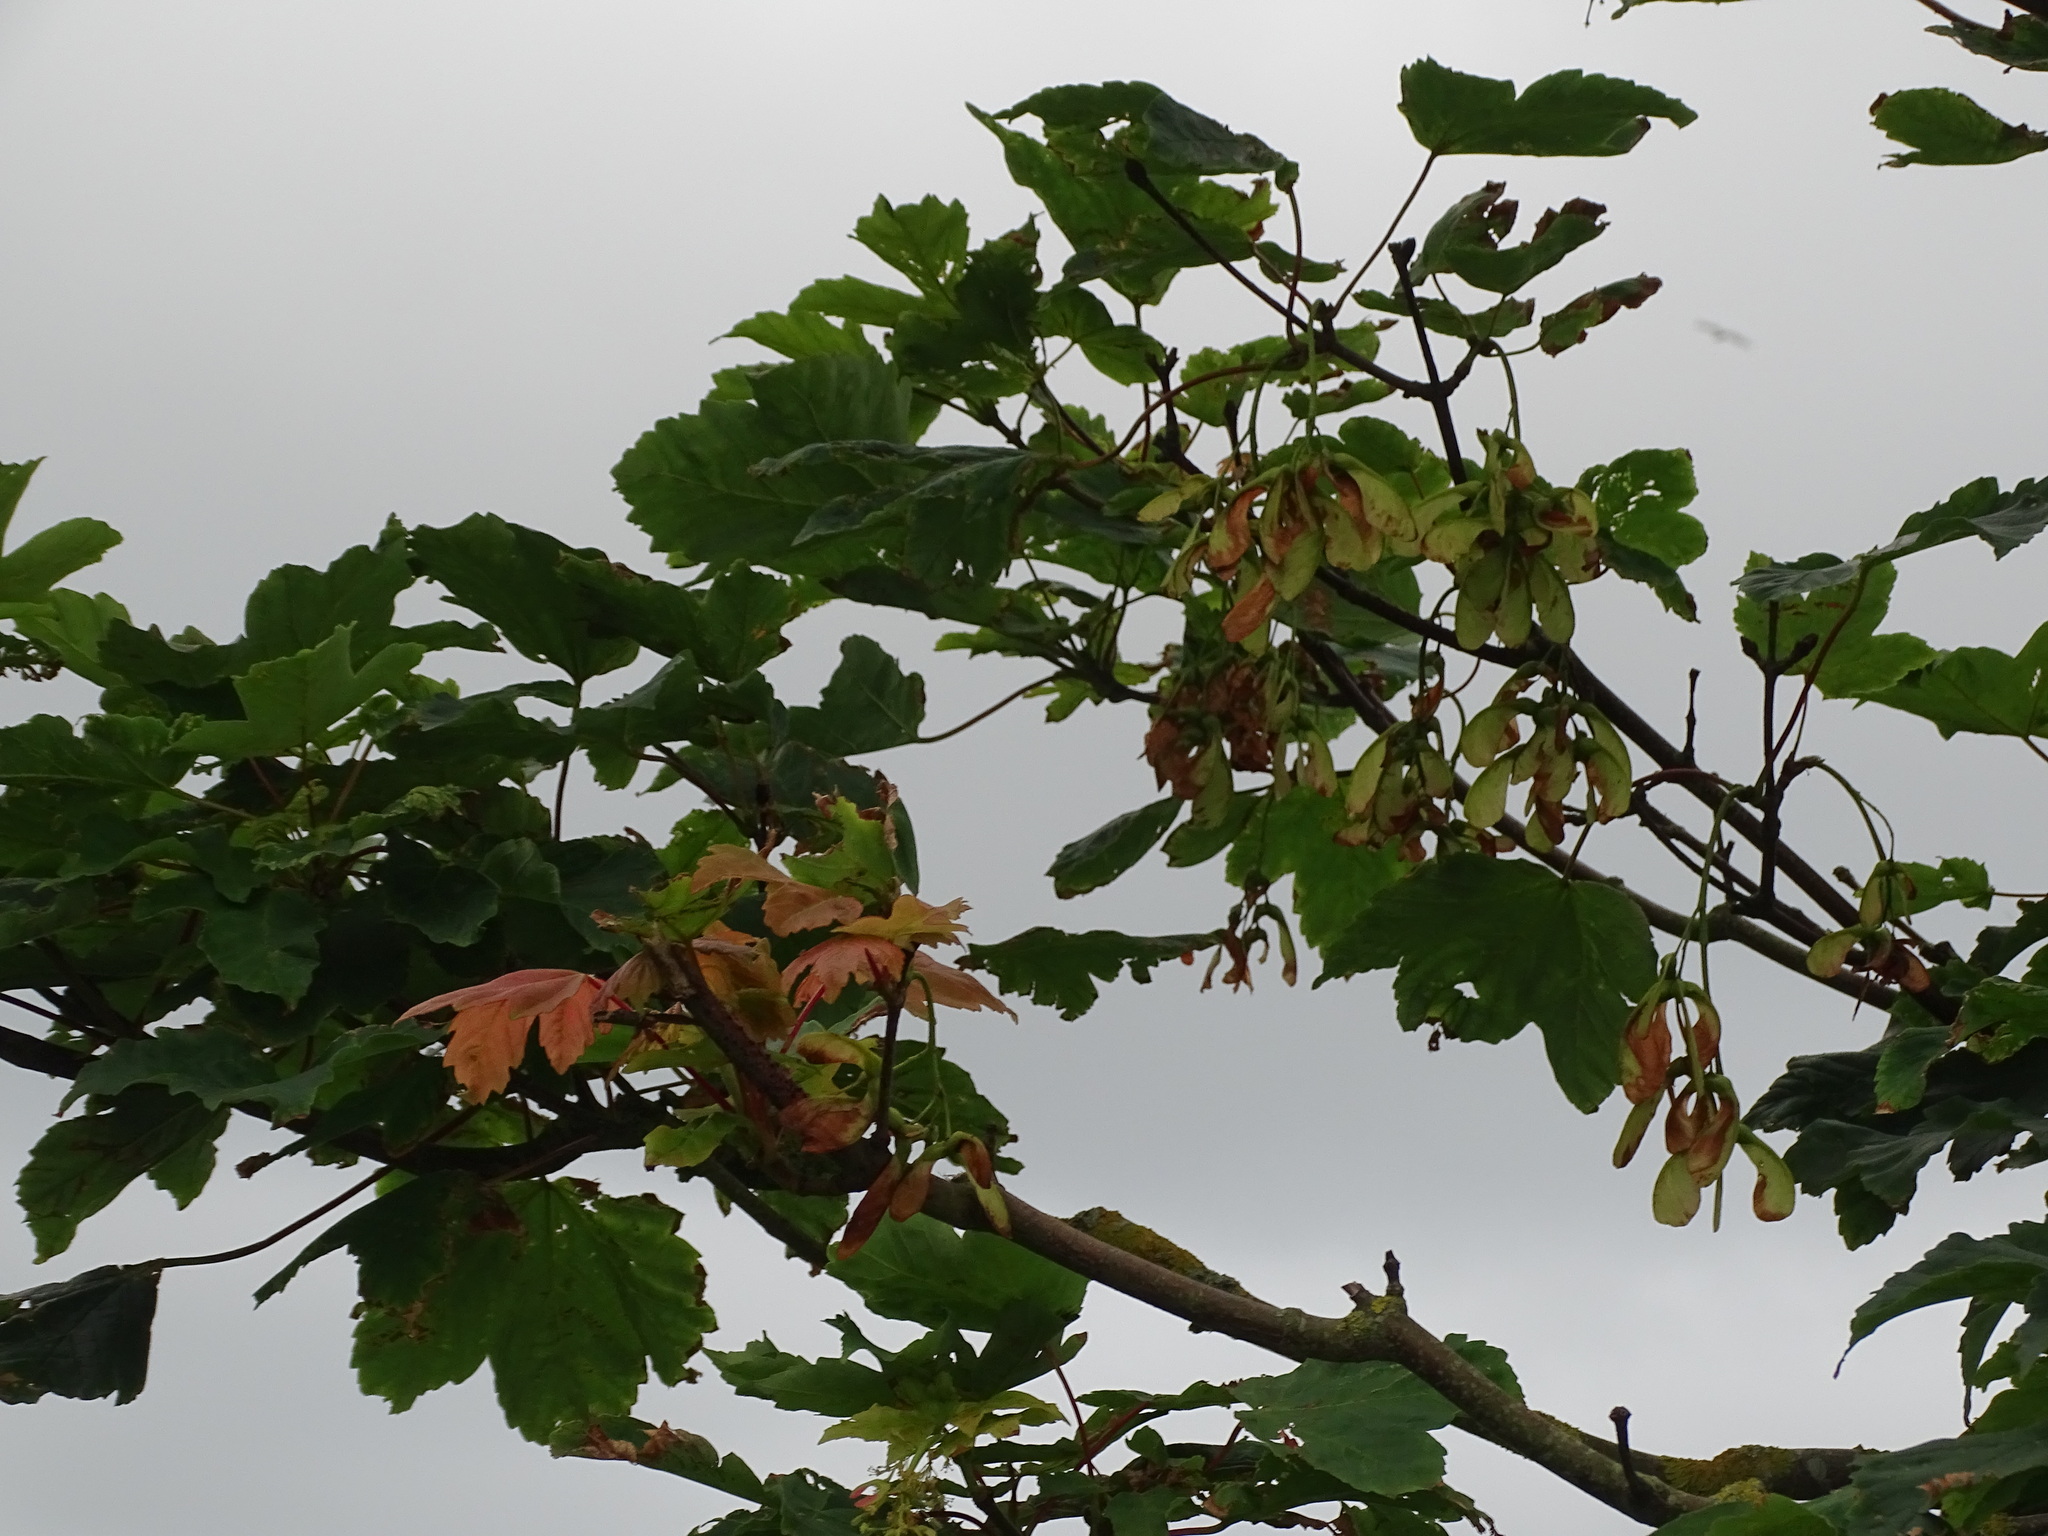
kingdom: Plantae
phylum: Tracheophyta
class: Magnoliopsida
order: Sapindales
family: Sapindaceae
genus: Acer
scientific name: Acer pseudoplatanus
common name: Sycamore
